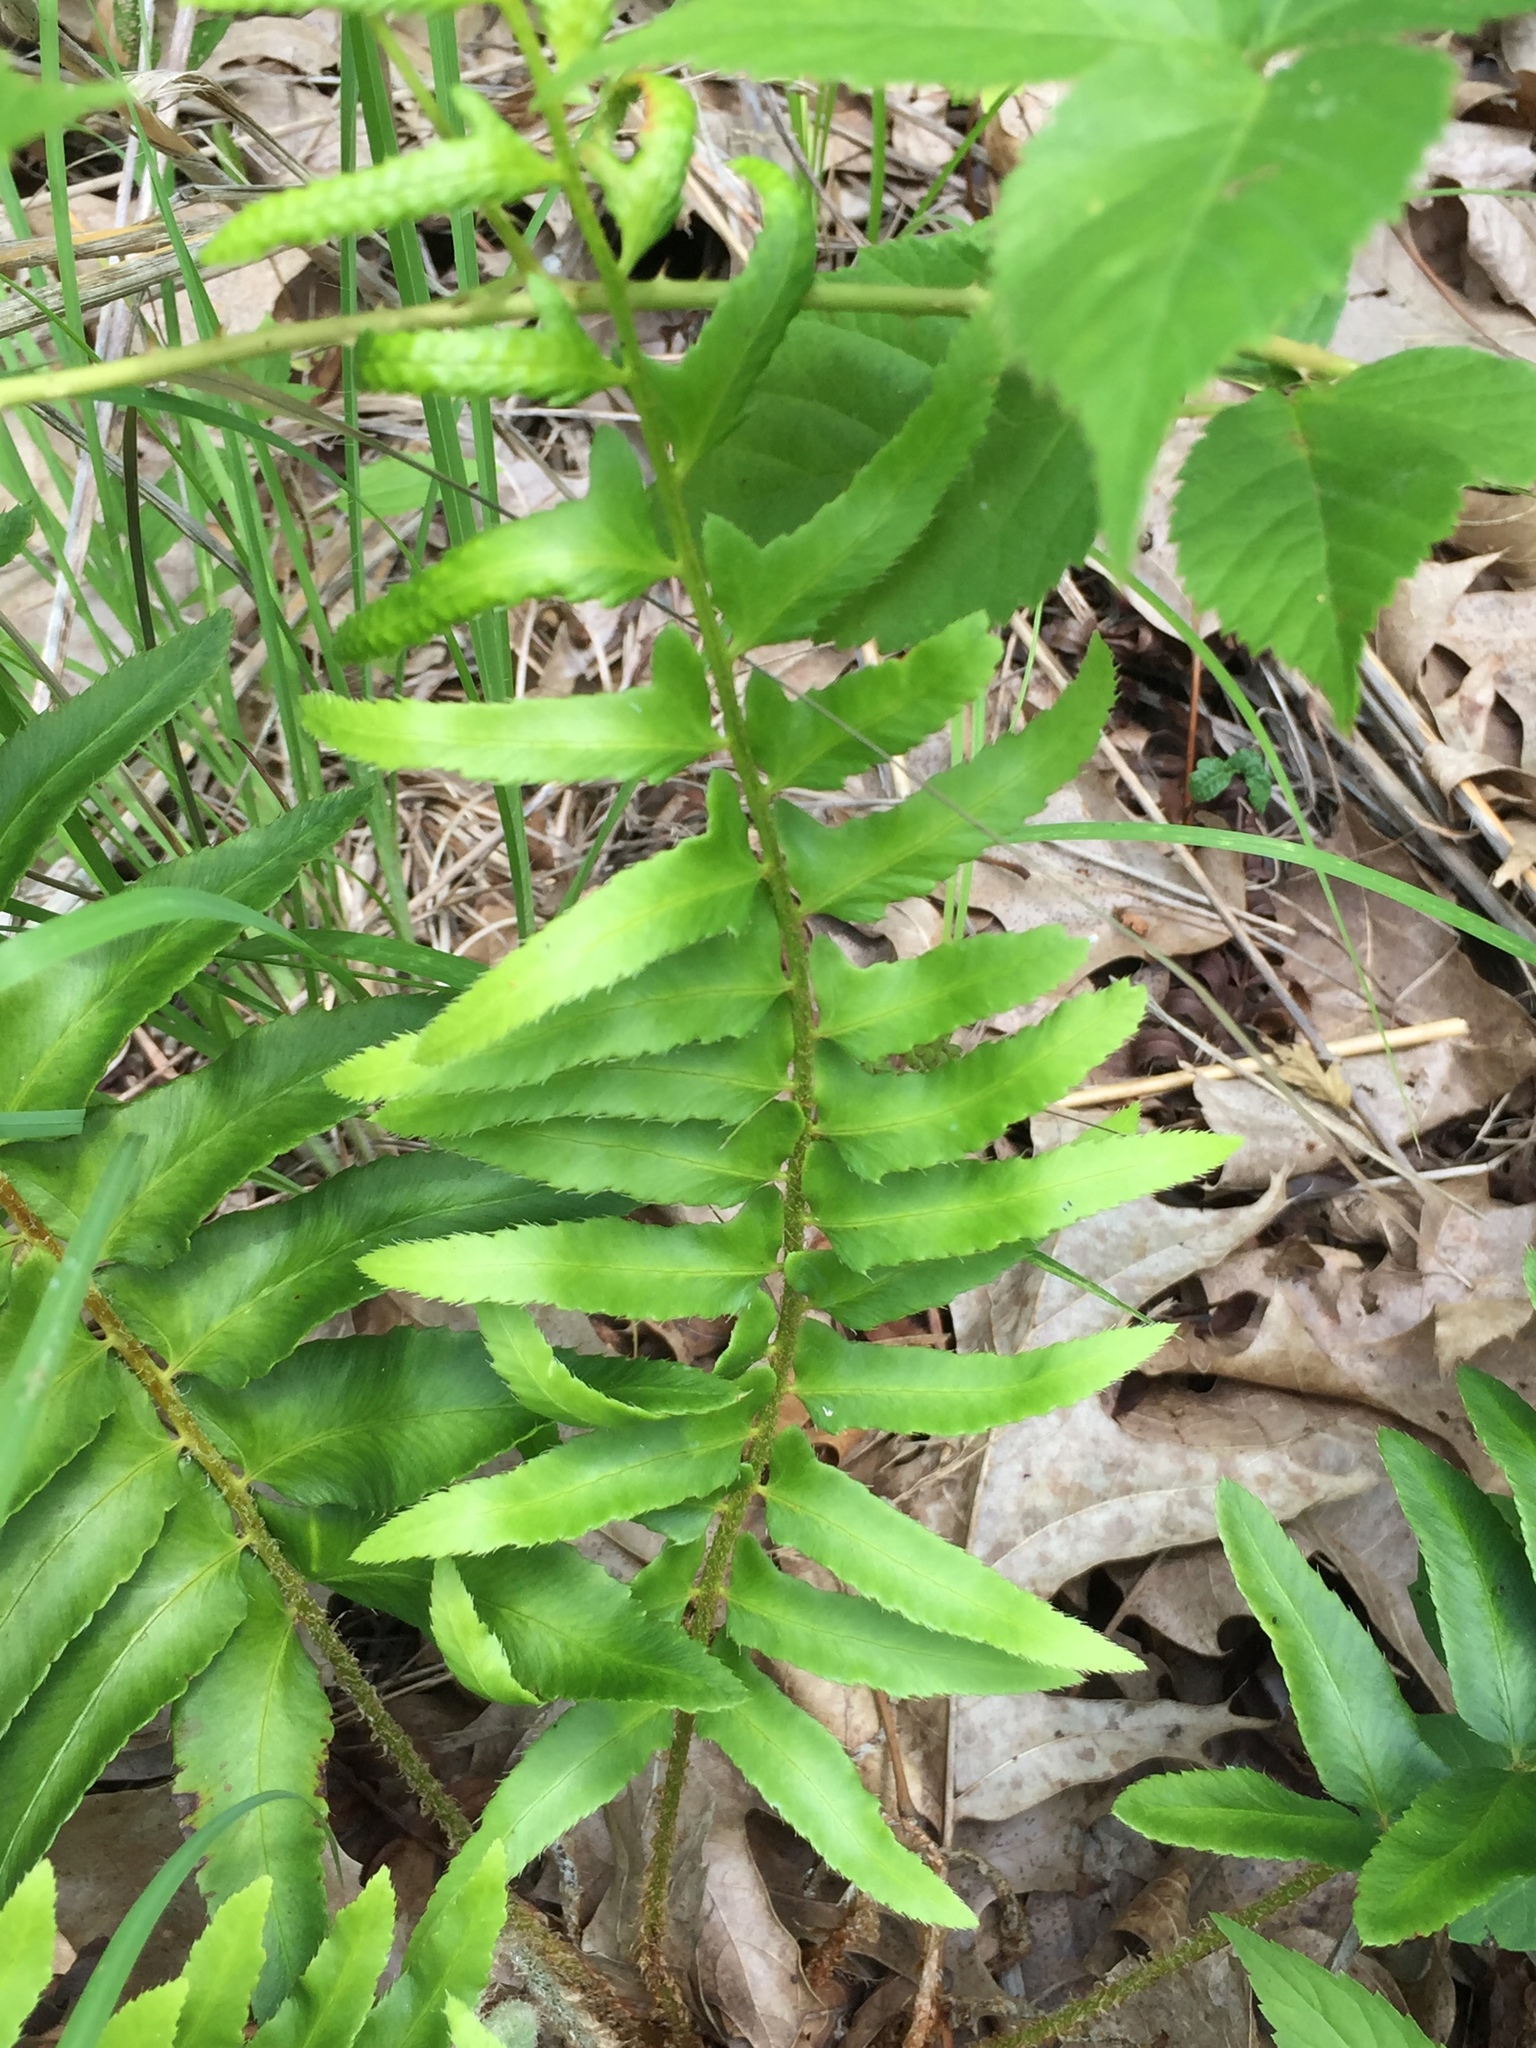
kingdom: Plantae
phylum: Tracheophyta
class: Polypodiopsida
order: Polypodiales
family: Dryopteridaceae
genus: Polystichum
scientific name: Polystichum acrostichoides
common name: Christmas fern
